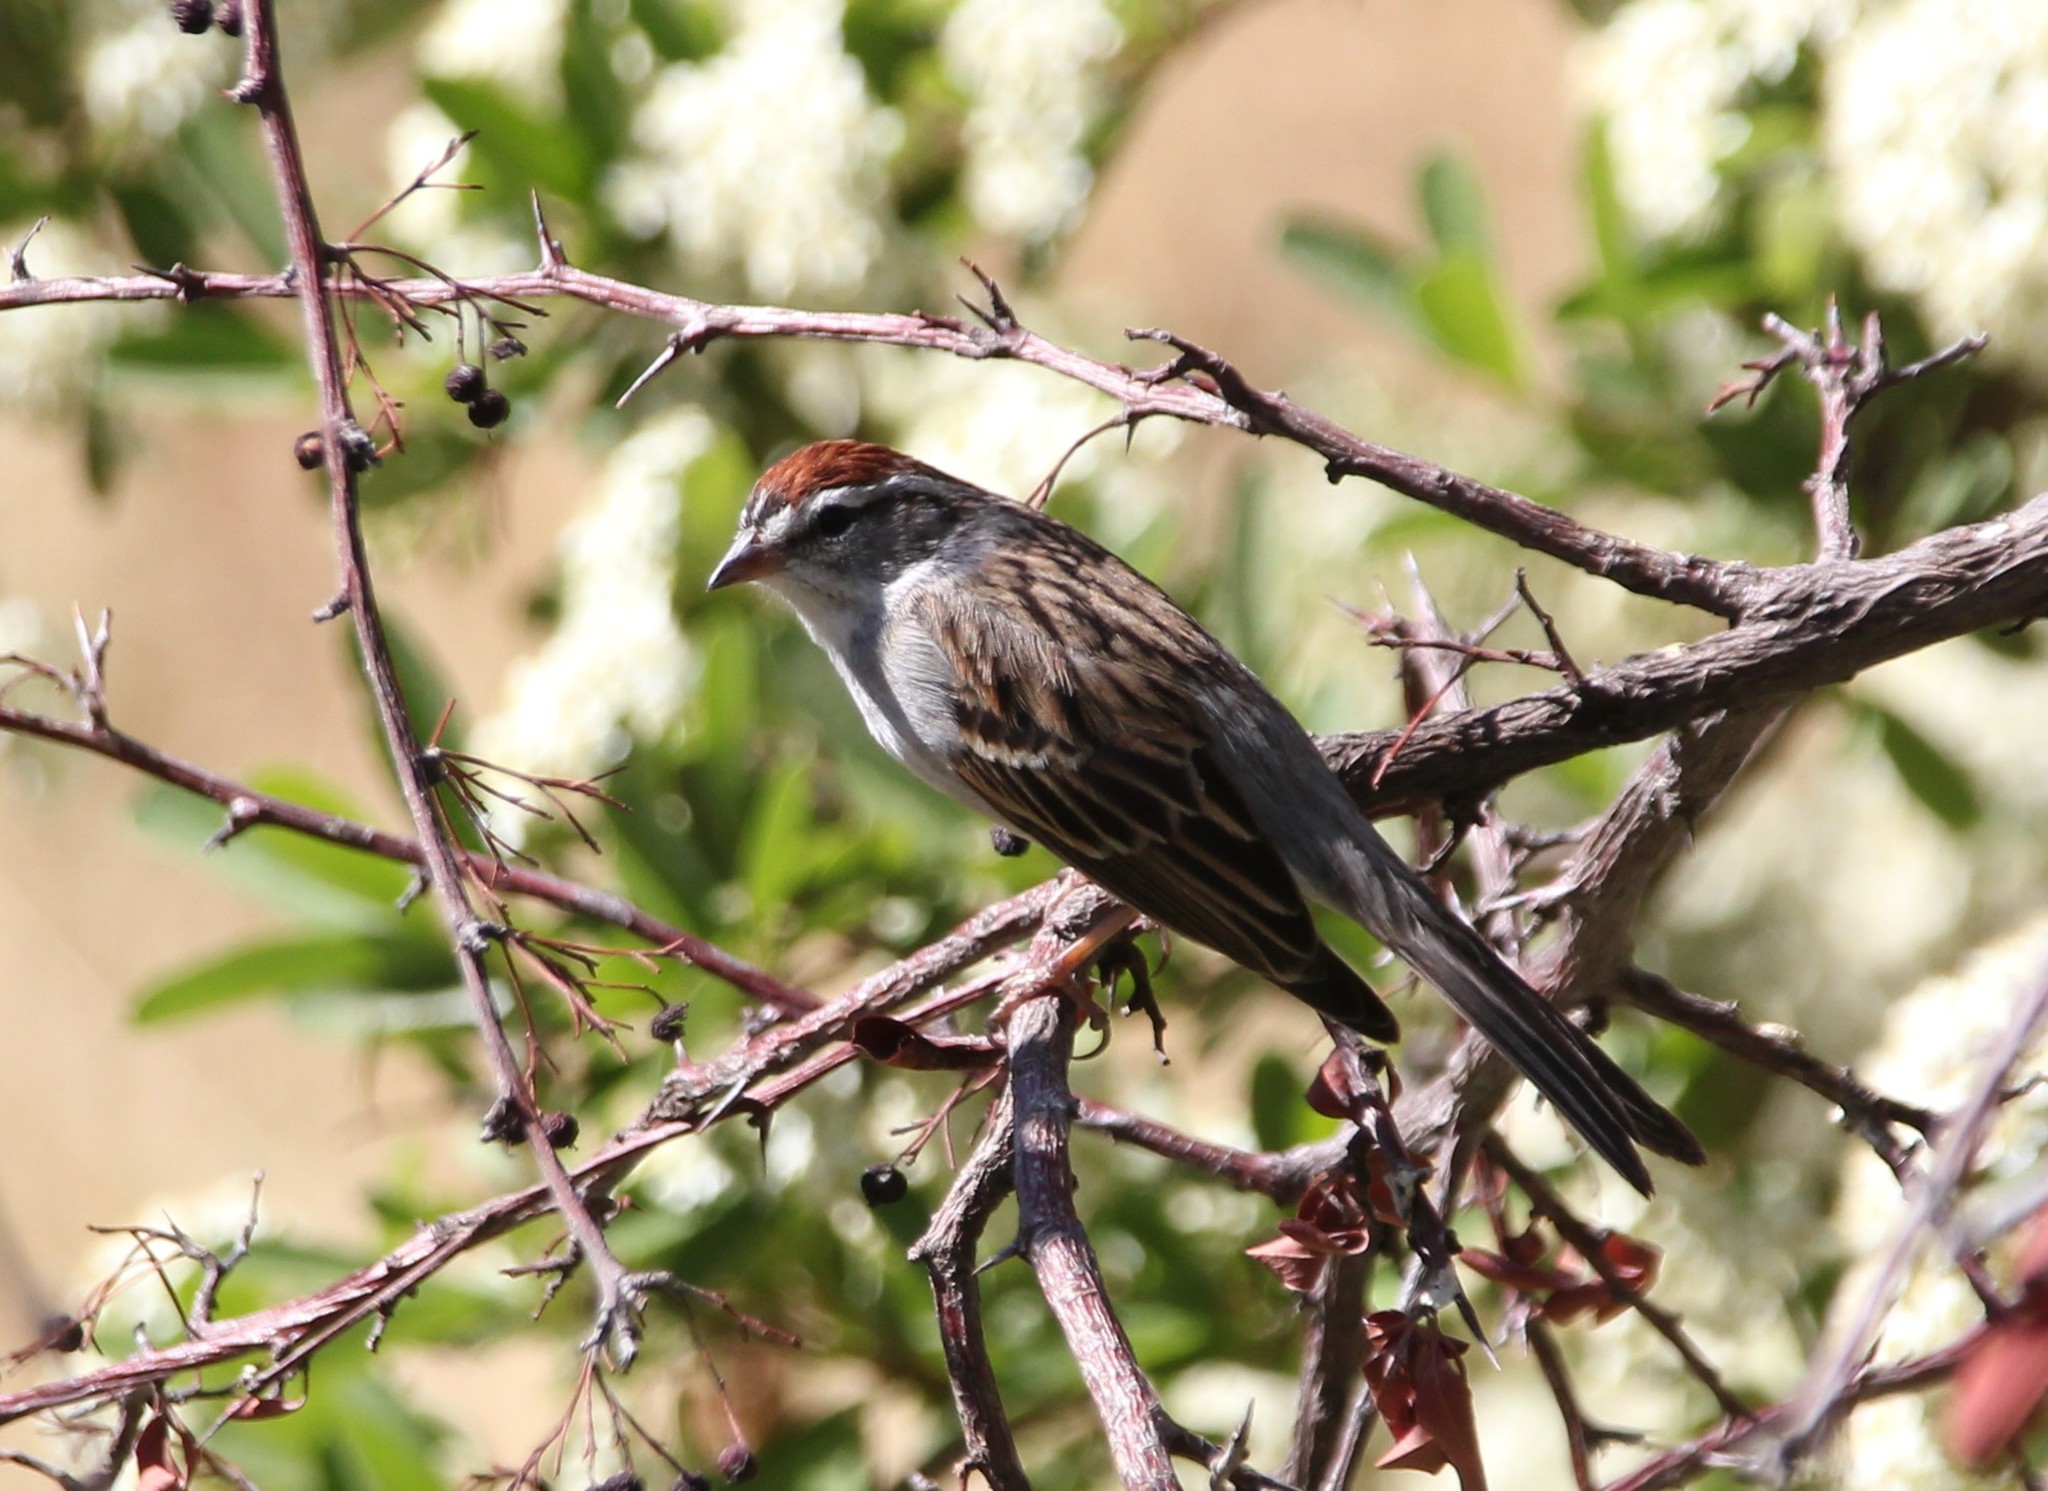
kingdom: Animalia
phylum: Chordata
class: Aves
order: Passeriformes
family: Passerellidae
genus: Spizella
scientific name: Spizella passerina
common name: Chipping sparrow
